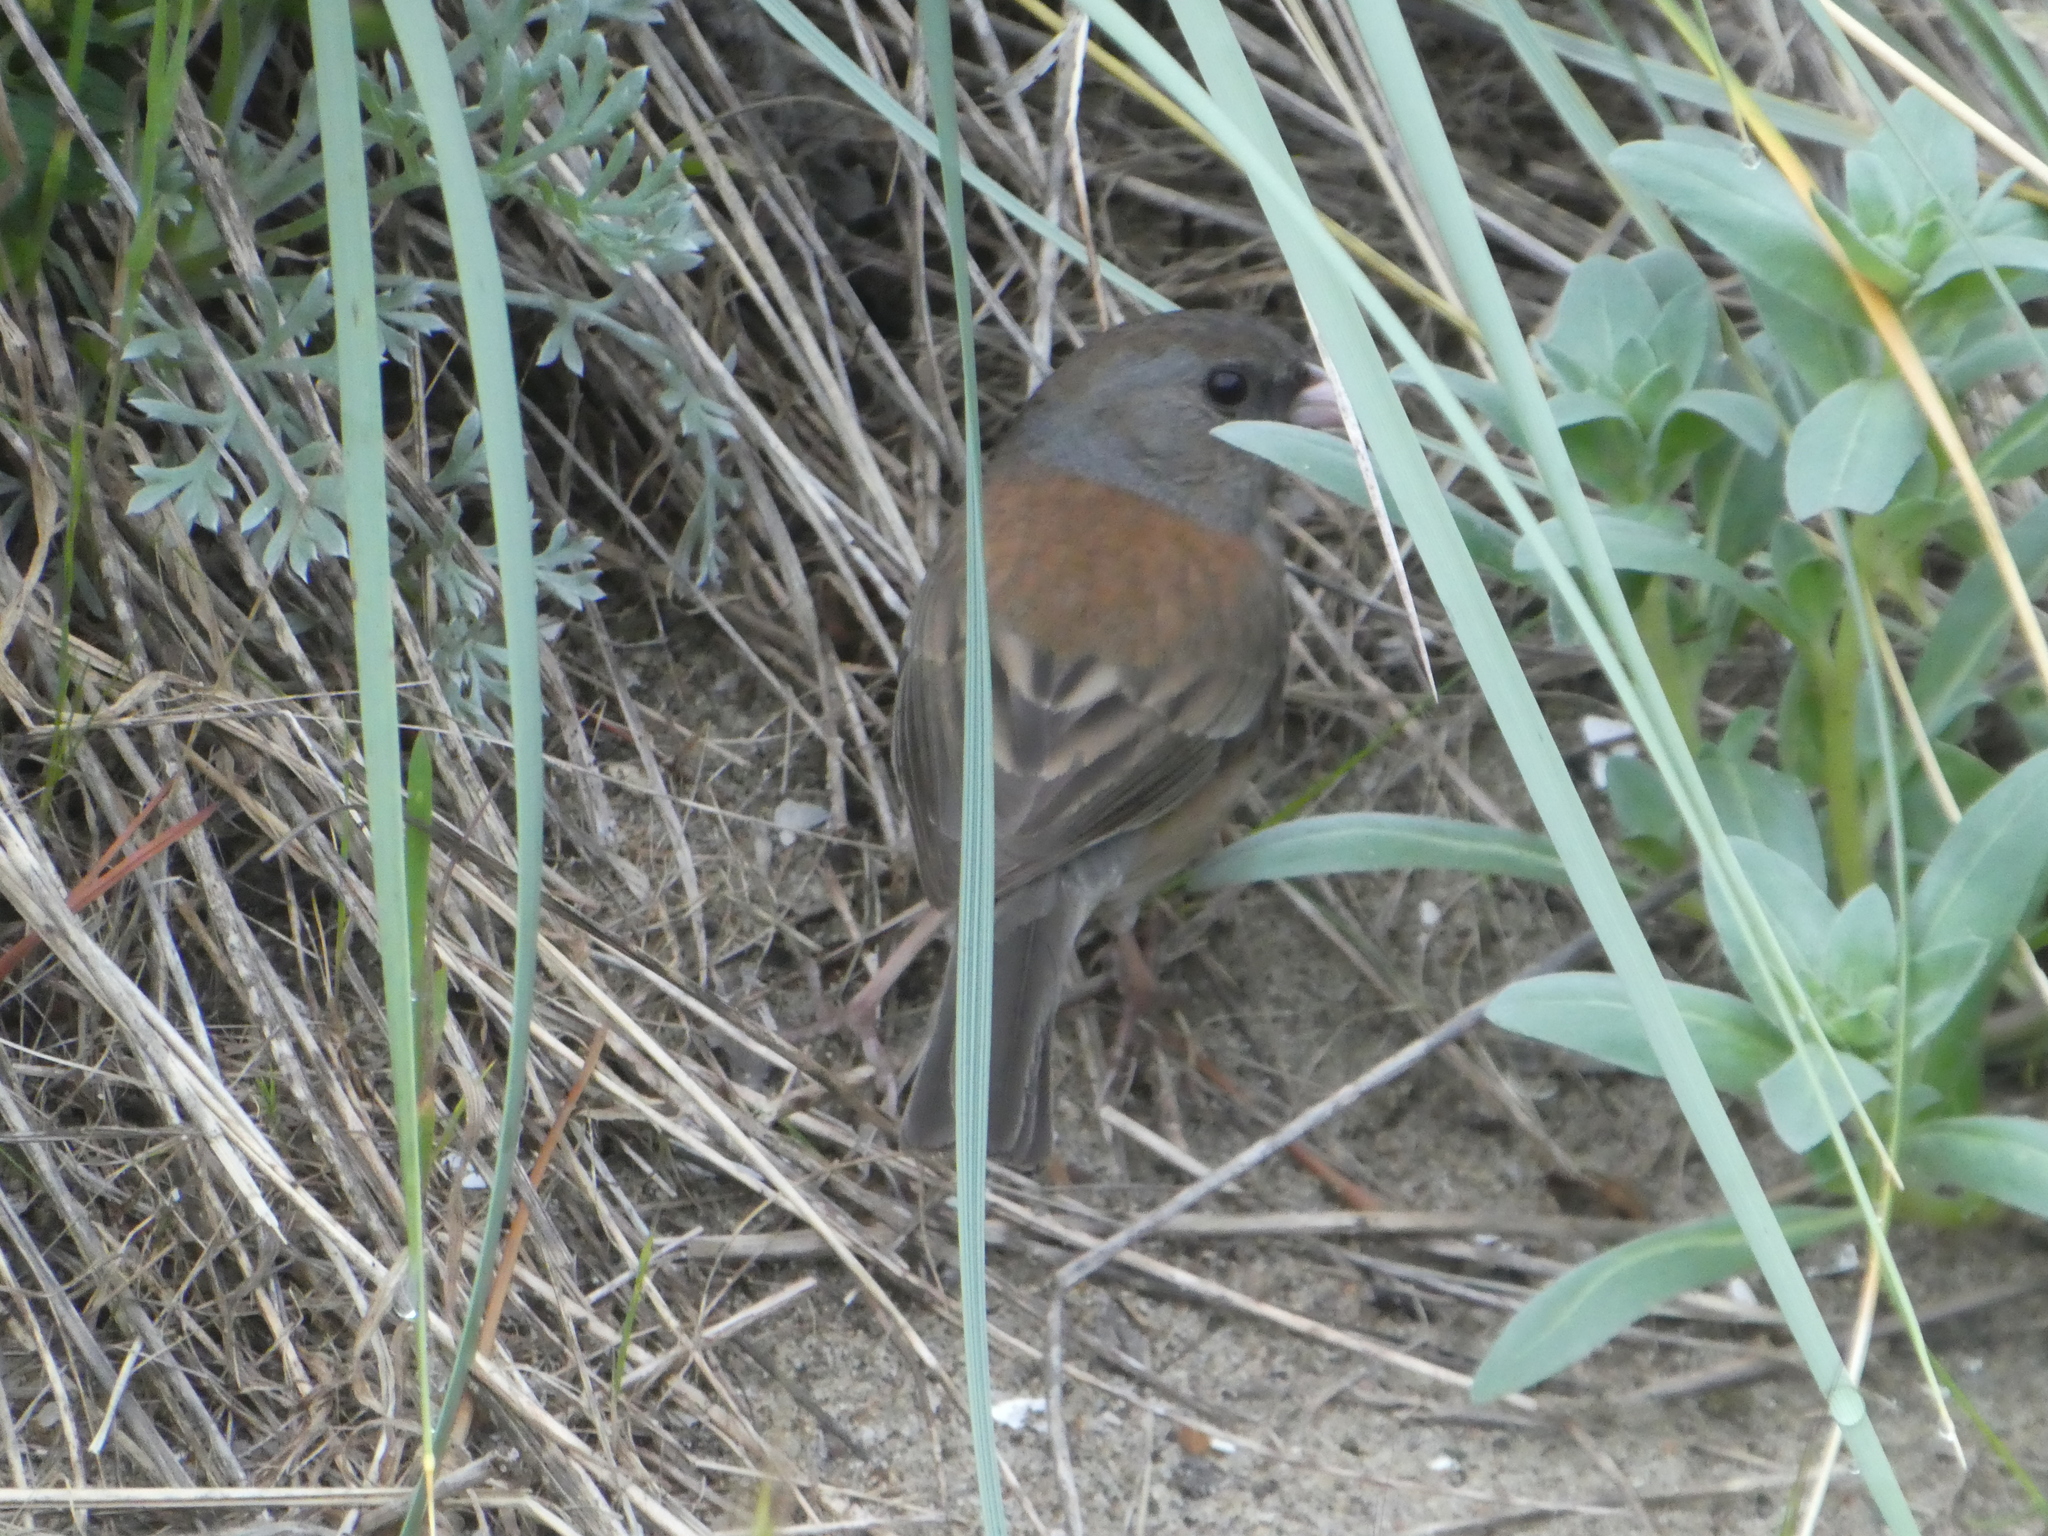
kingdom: Animalia
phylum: Chordata
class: Aves
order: Passeriformes
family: Passerellidae
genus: Junco
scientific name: Junco hyemalis
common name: Dark-eyed junco
